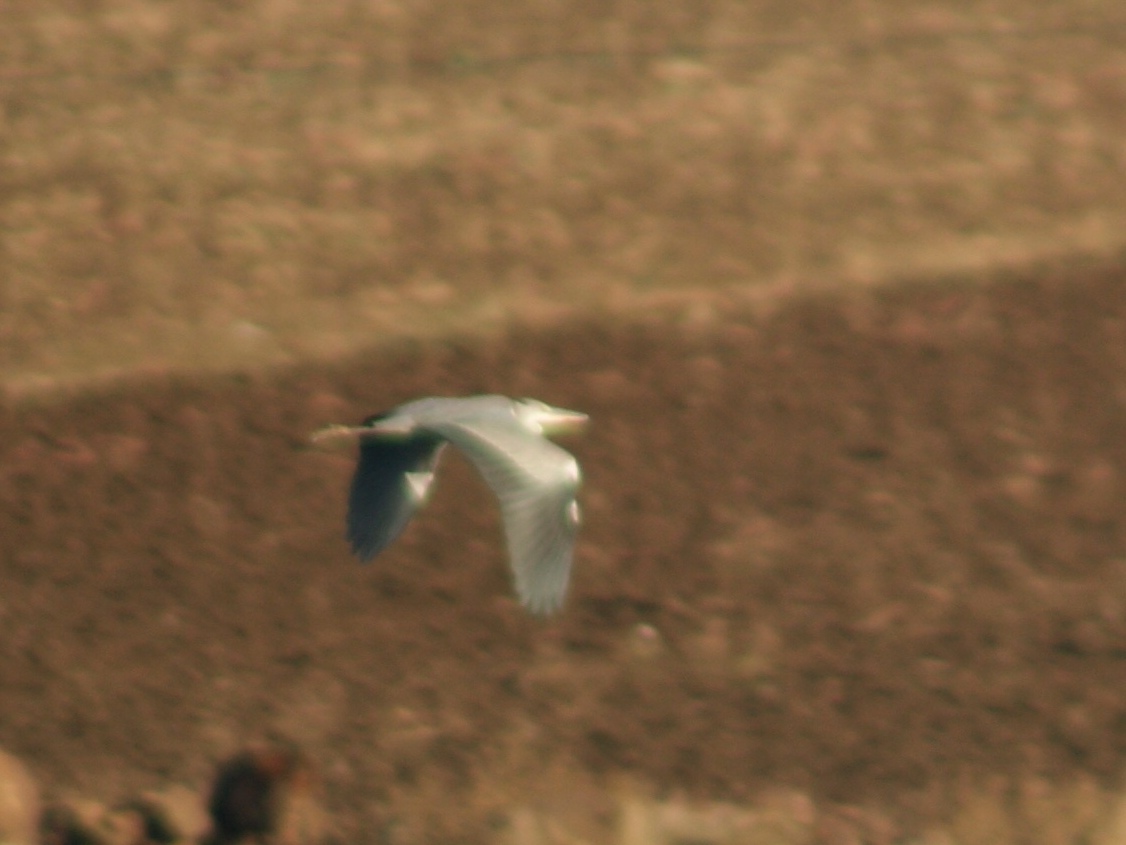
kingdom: Animalia
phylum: Chordata
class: Aves
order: Pelecaniformes
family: Ardeidae
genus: Ardea
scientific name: Ardea cinerea
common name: Grey heron
